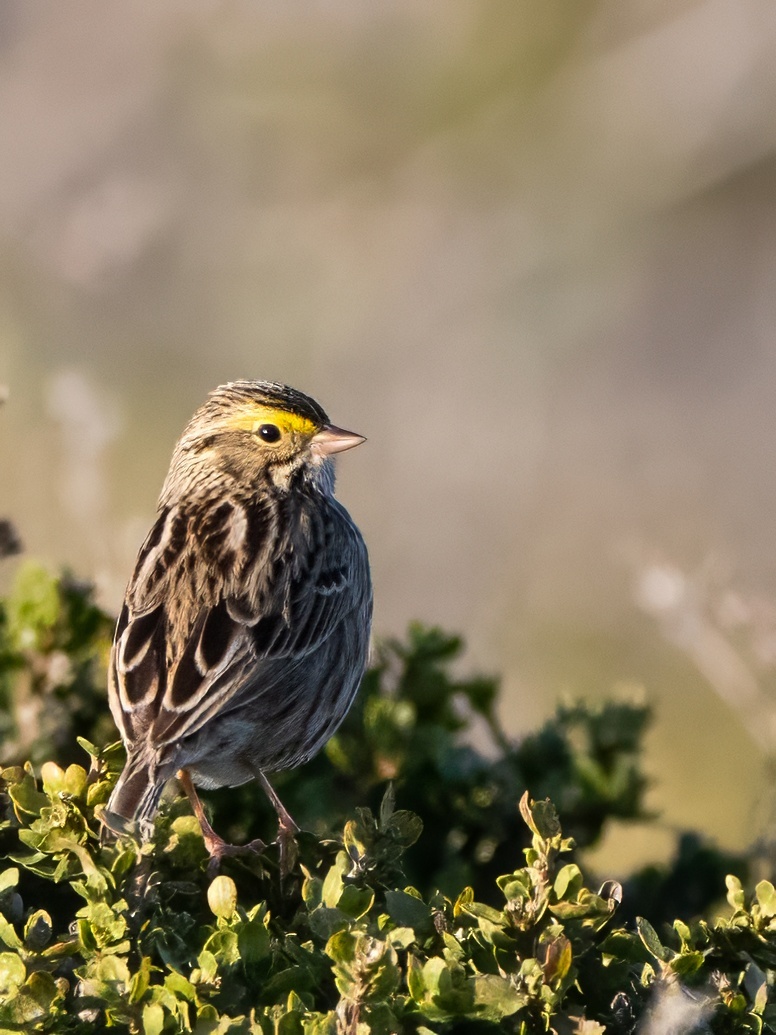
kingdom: Animalia
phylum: Chordata
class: Aves
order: Passeriformes
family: Passerellidae
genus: Passerculus
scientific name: Passerculus sandwichensis
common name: Savannah sparrow
